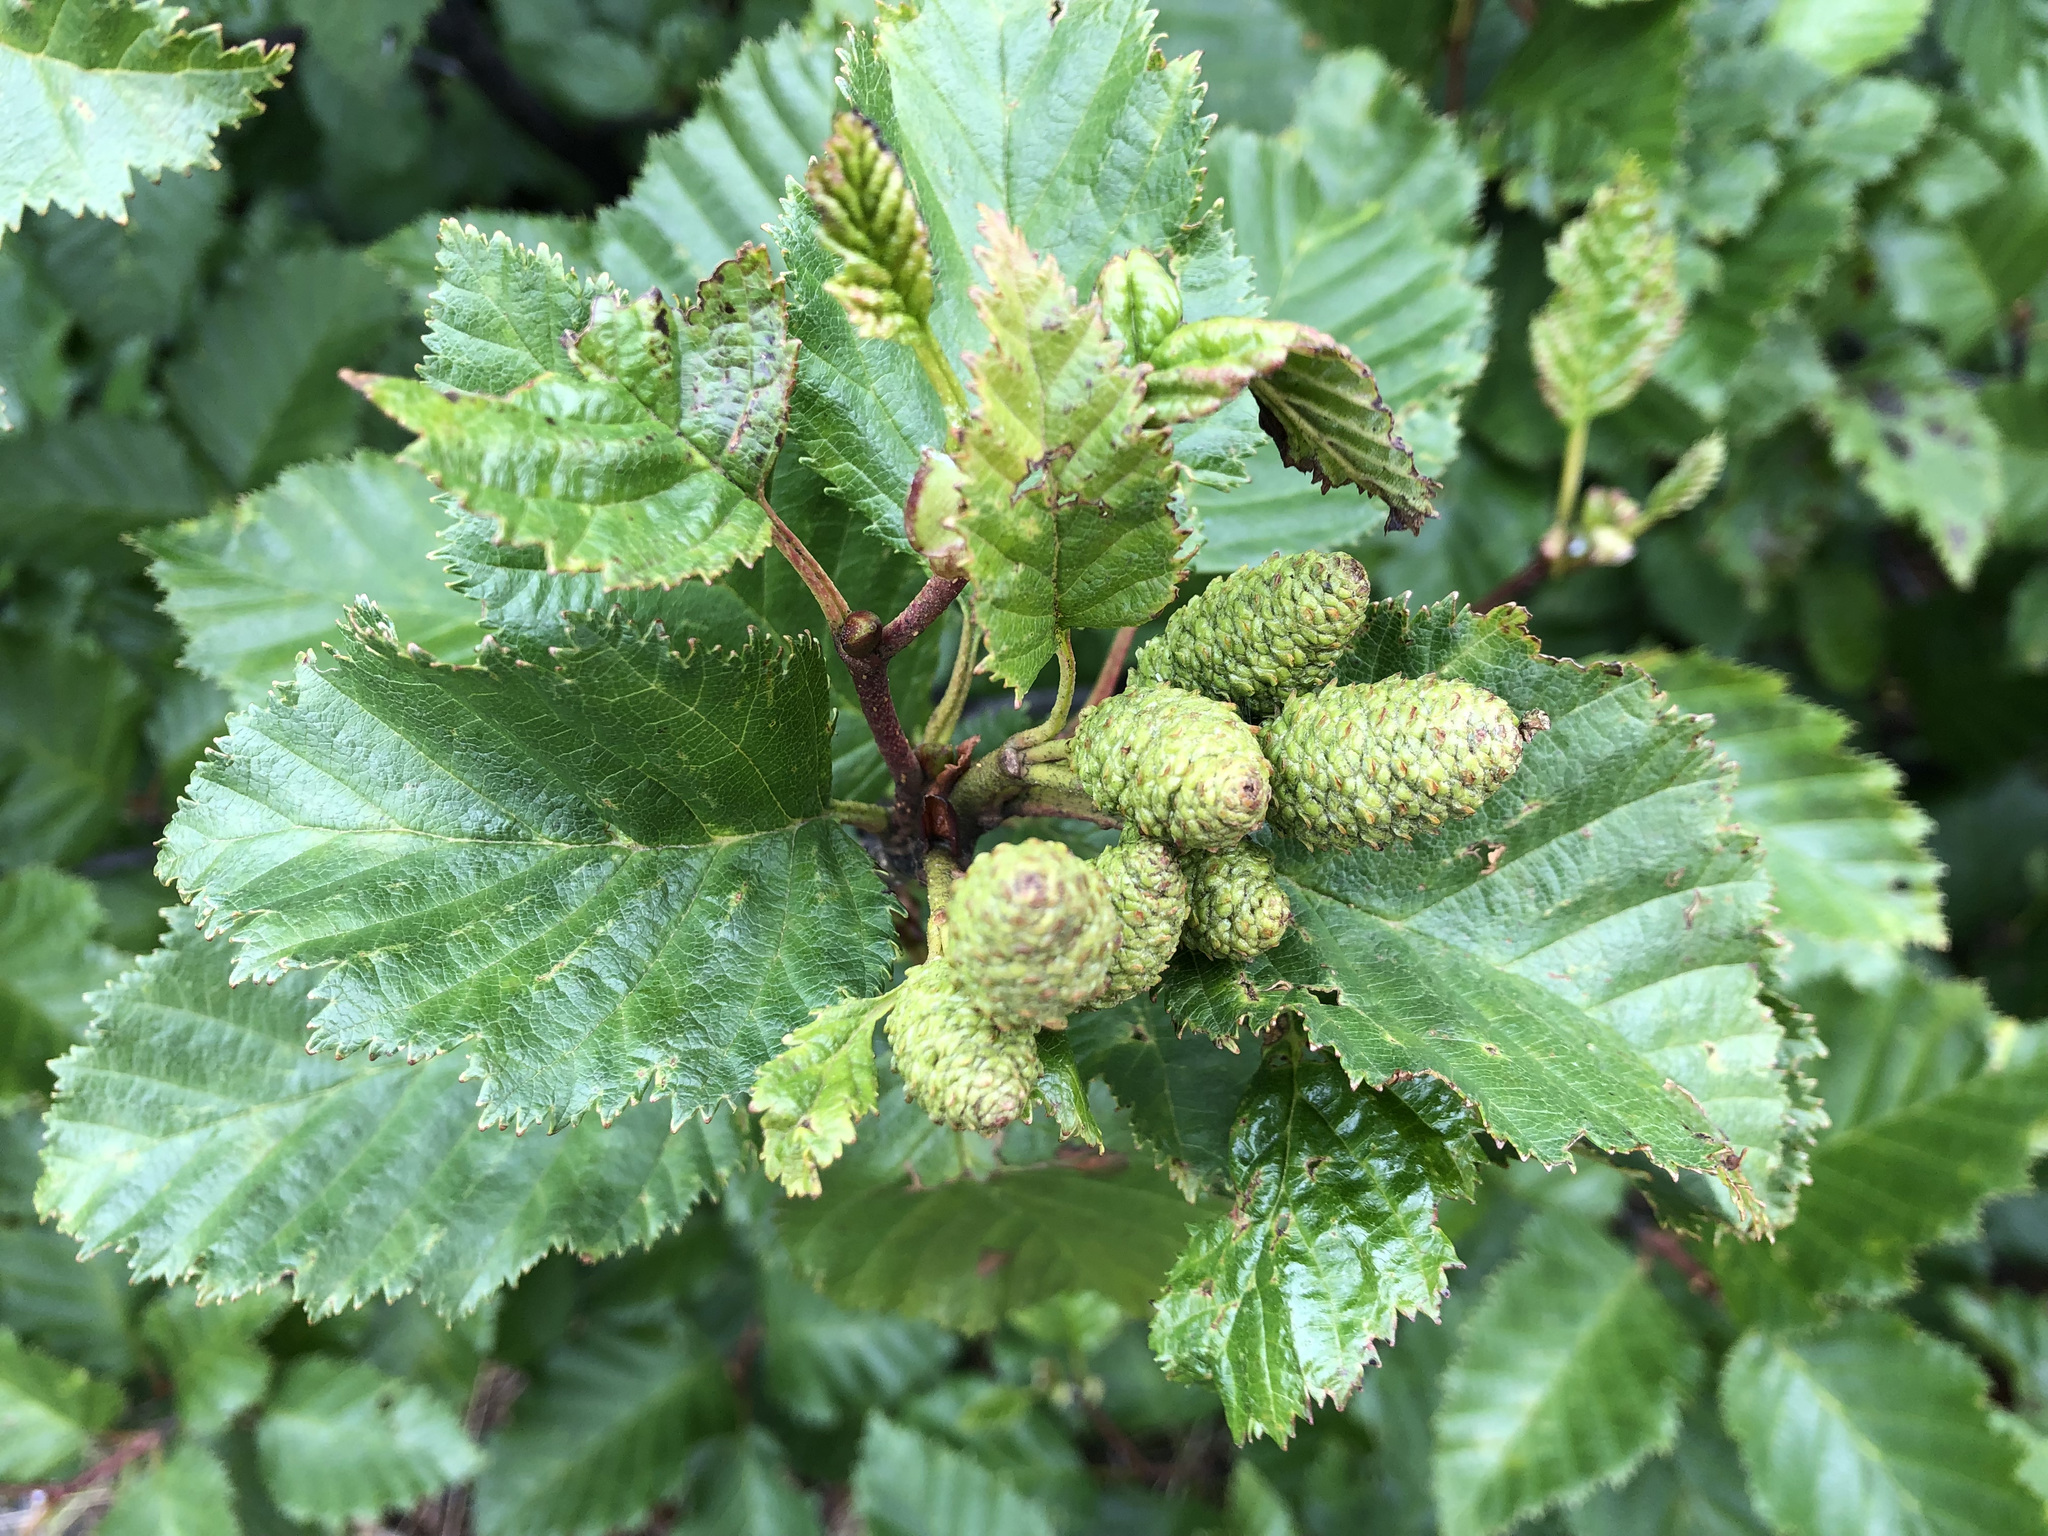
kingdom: Plantae
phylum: Tracheophyta
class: Magnoliopsida
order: Fagales
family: Betulaceae
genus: Alnus
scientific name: Alnus alnobetula
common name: Green alder
